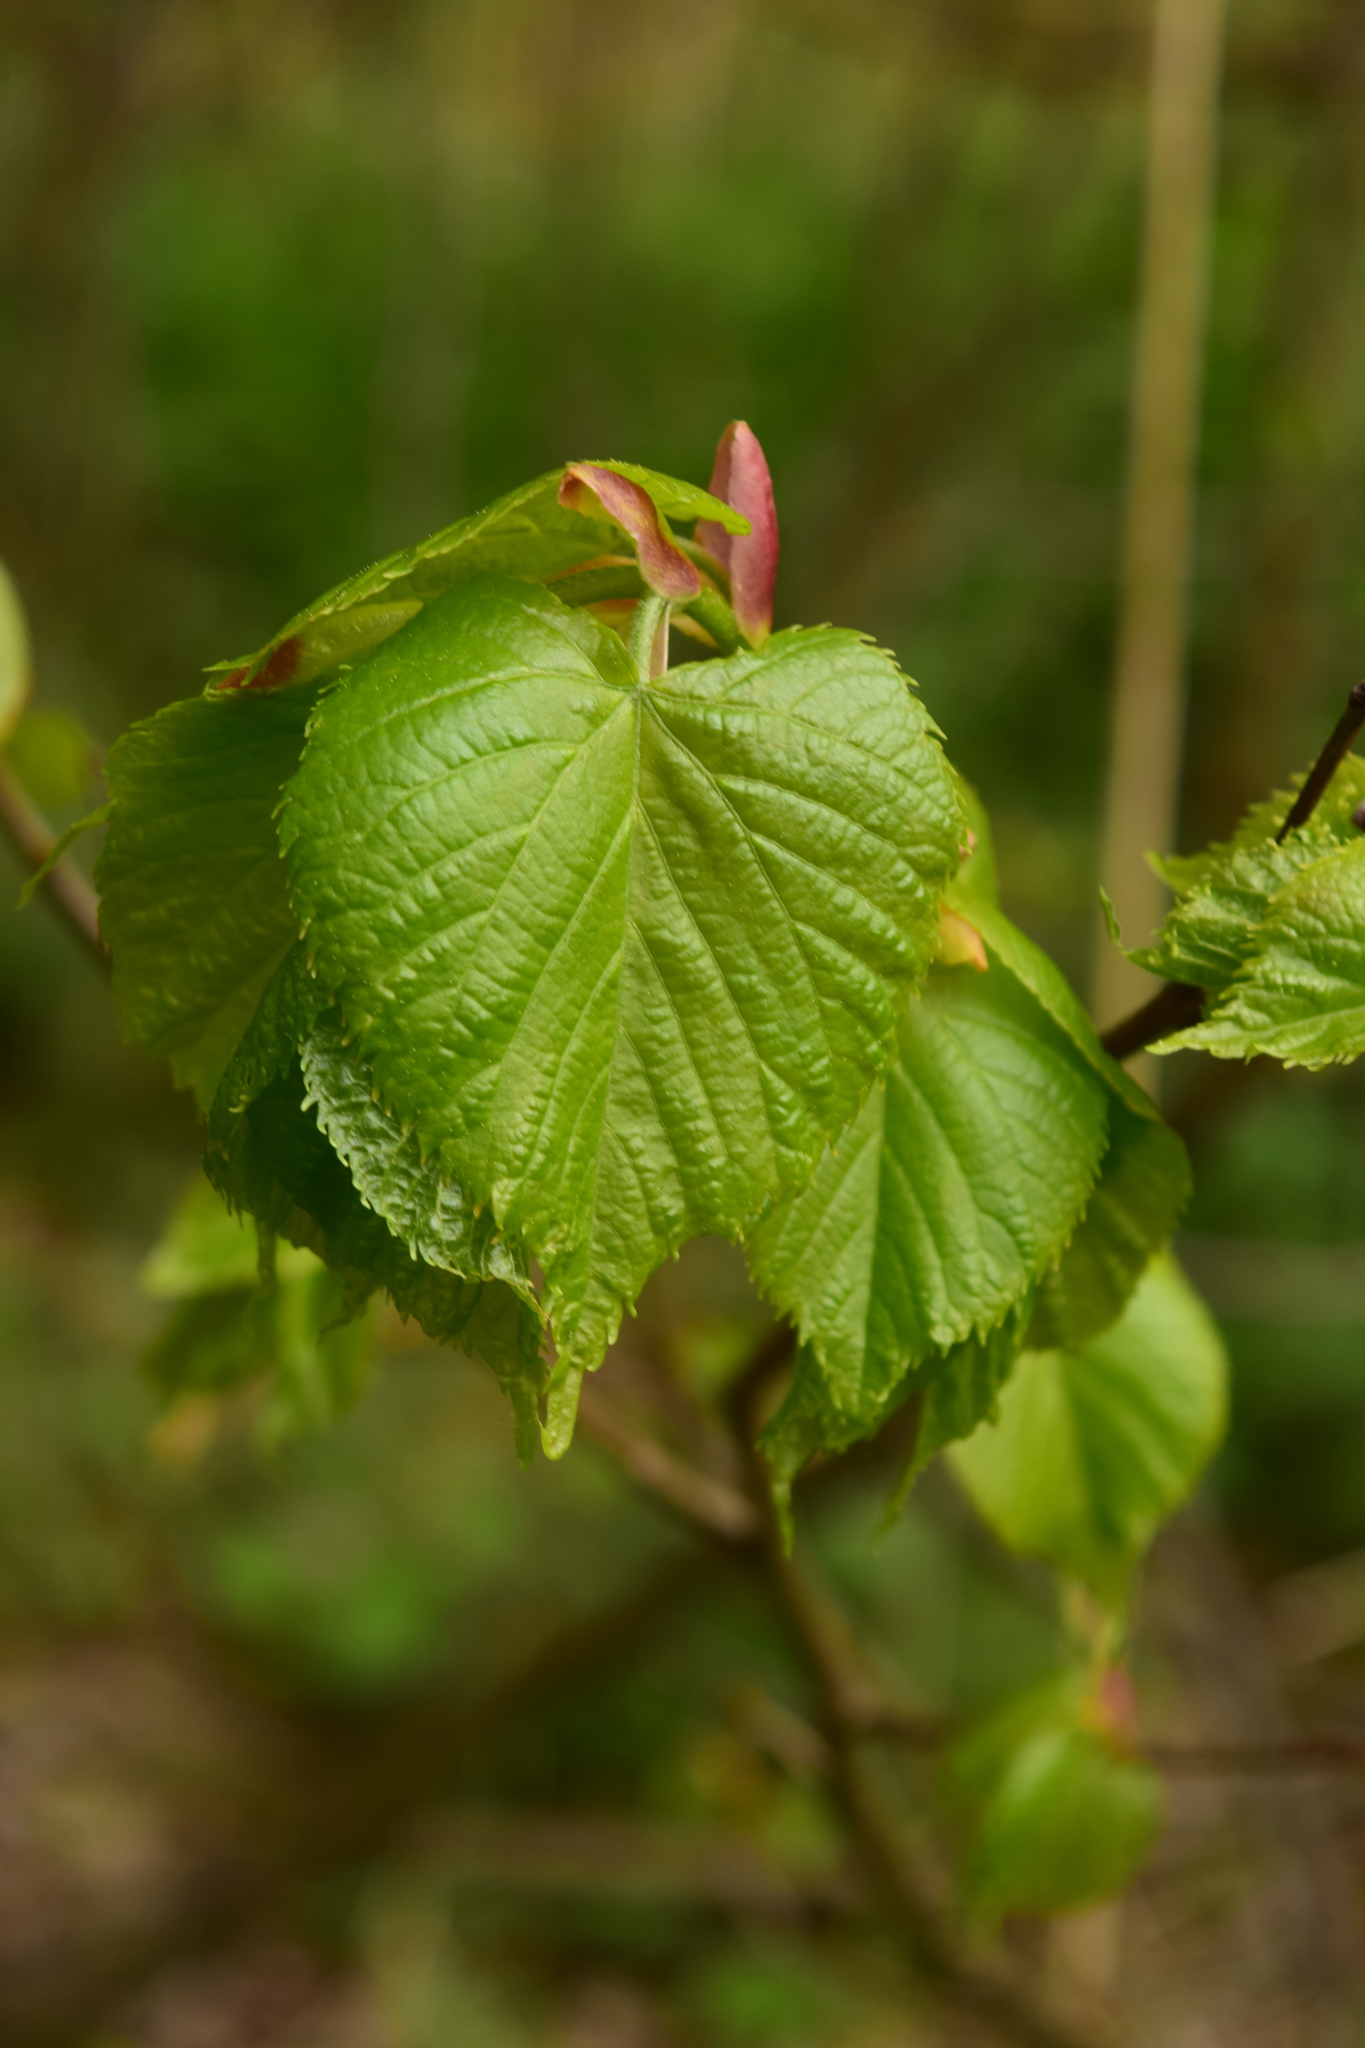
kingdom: Plantae
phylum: Tracheophyta
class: Magnoliopsida
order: Malvales
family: Malvaceae
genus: Tilia
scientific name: Tilia cordata
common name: Small-leaved lime
